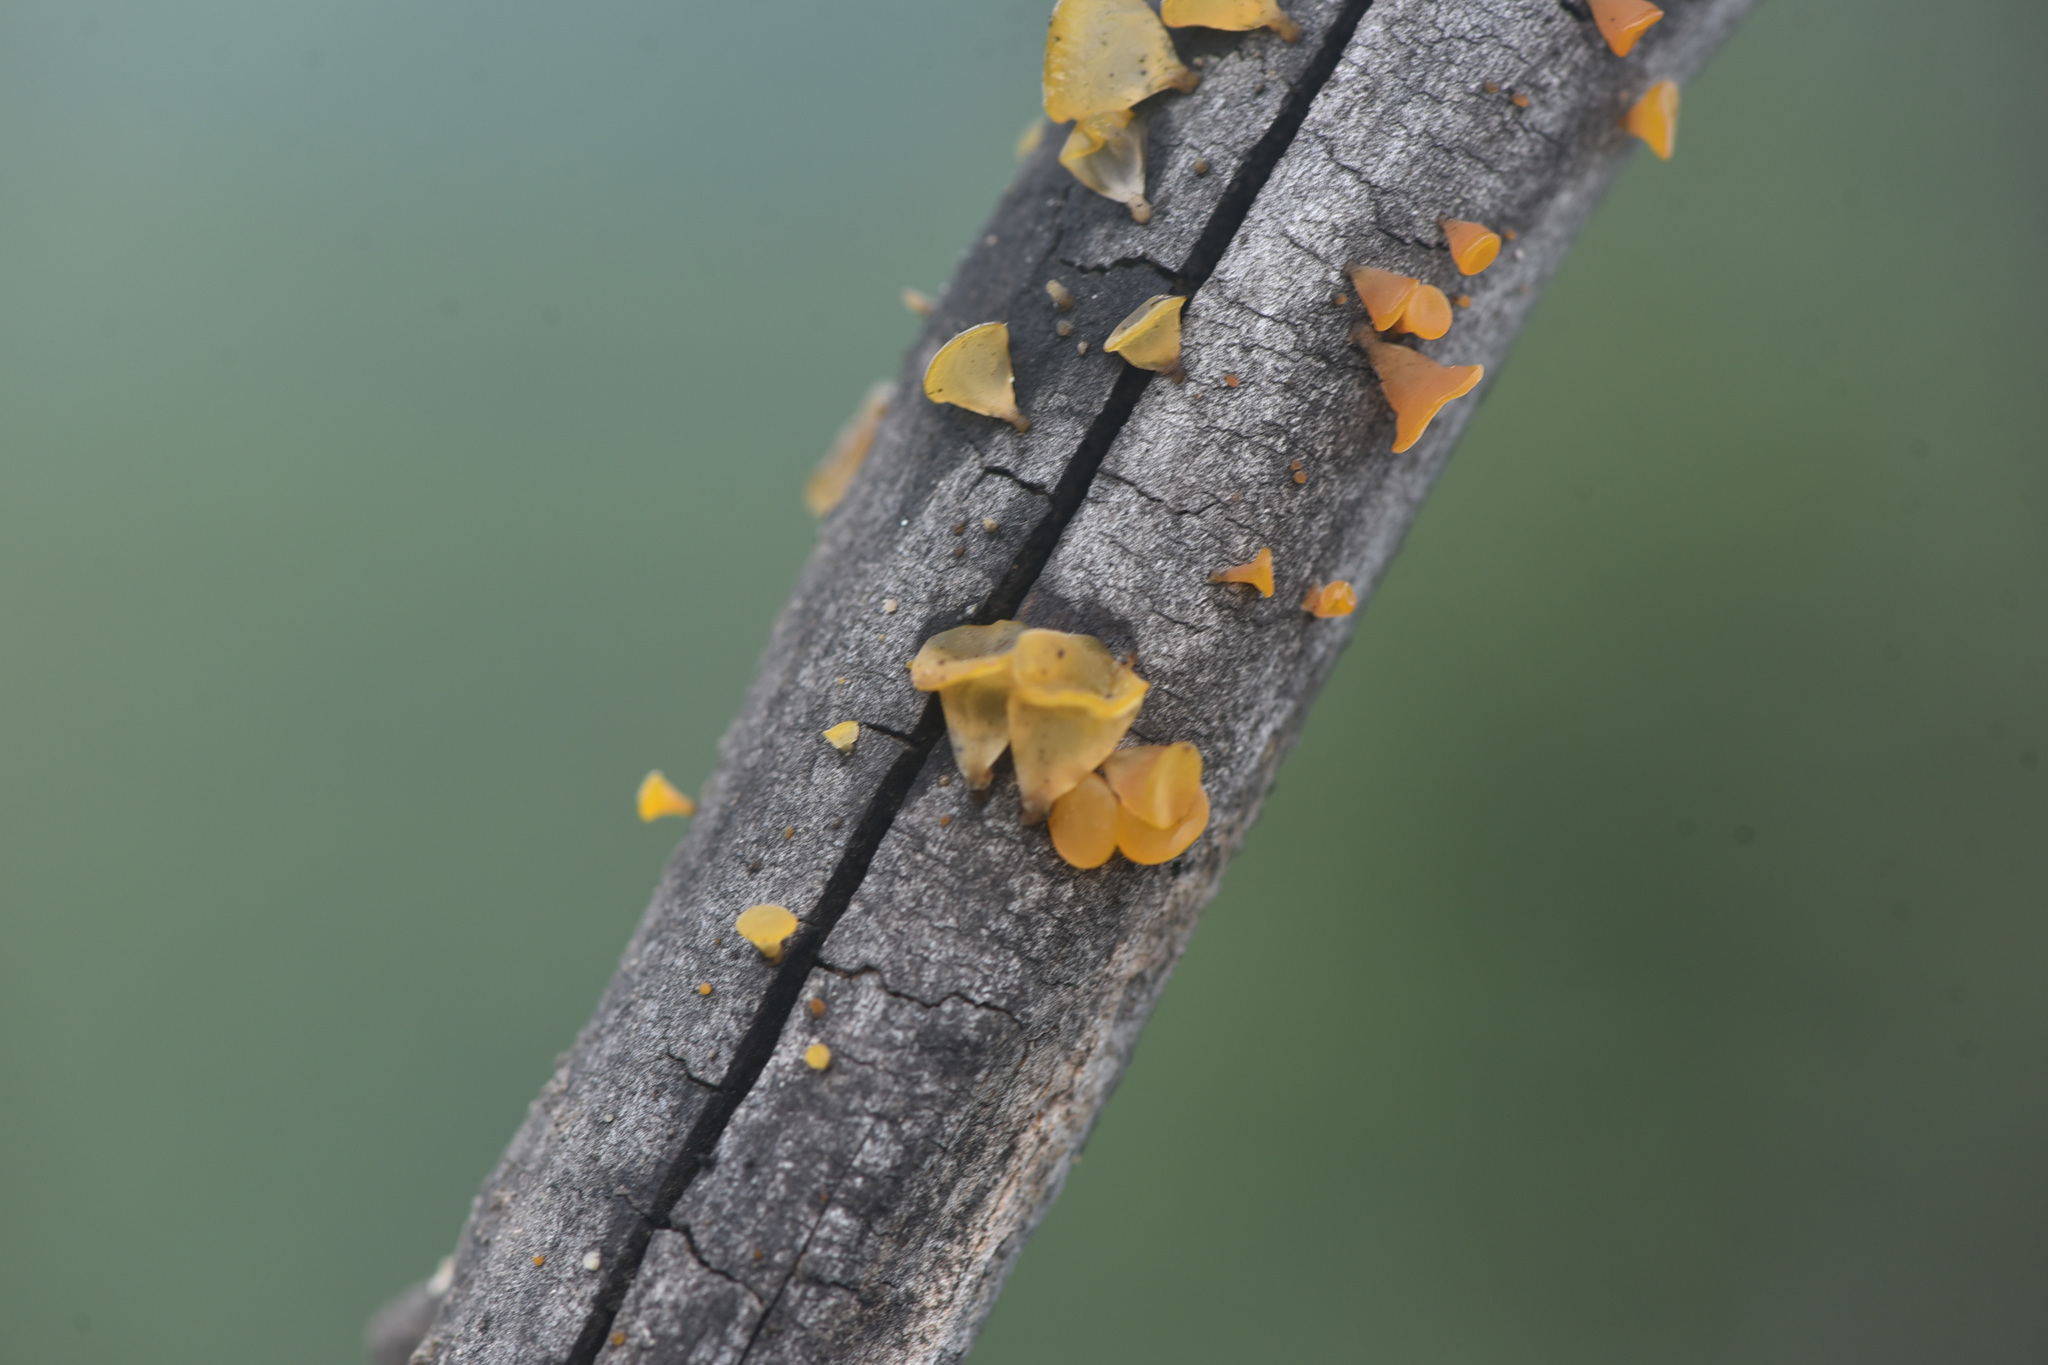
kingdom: Fungi
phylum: Basidiomycota
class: Dacrymycetes
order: Dacrymycetales
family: Dacrymycetaceae
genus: Guepiniopsis
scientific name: Guepiniopsis alpina
